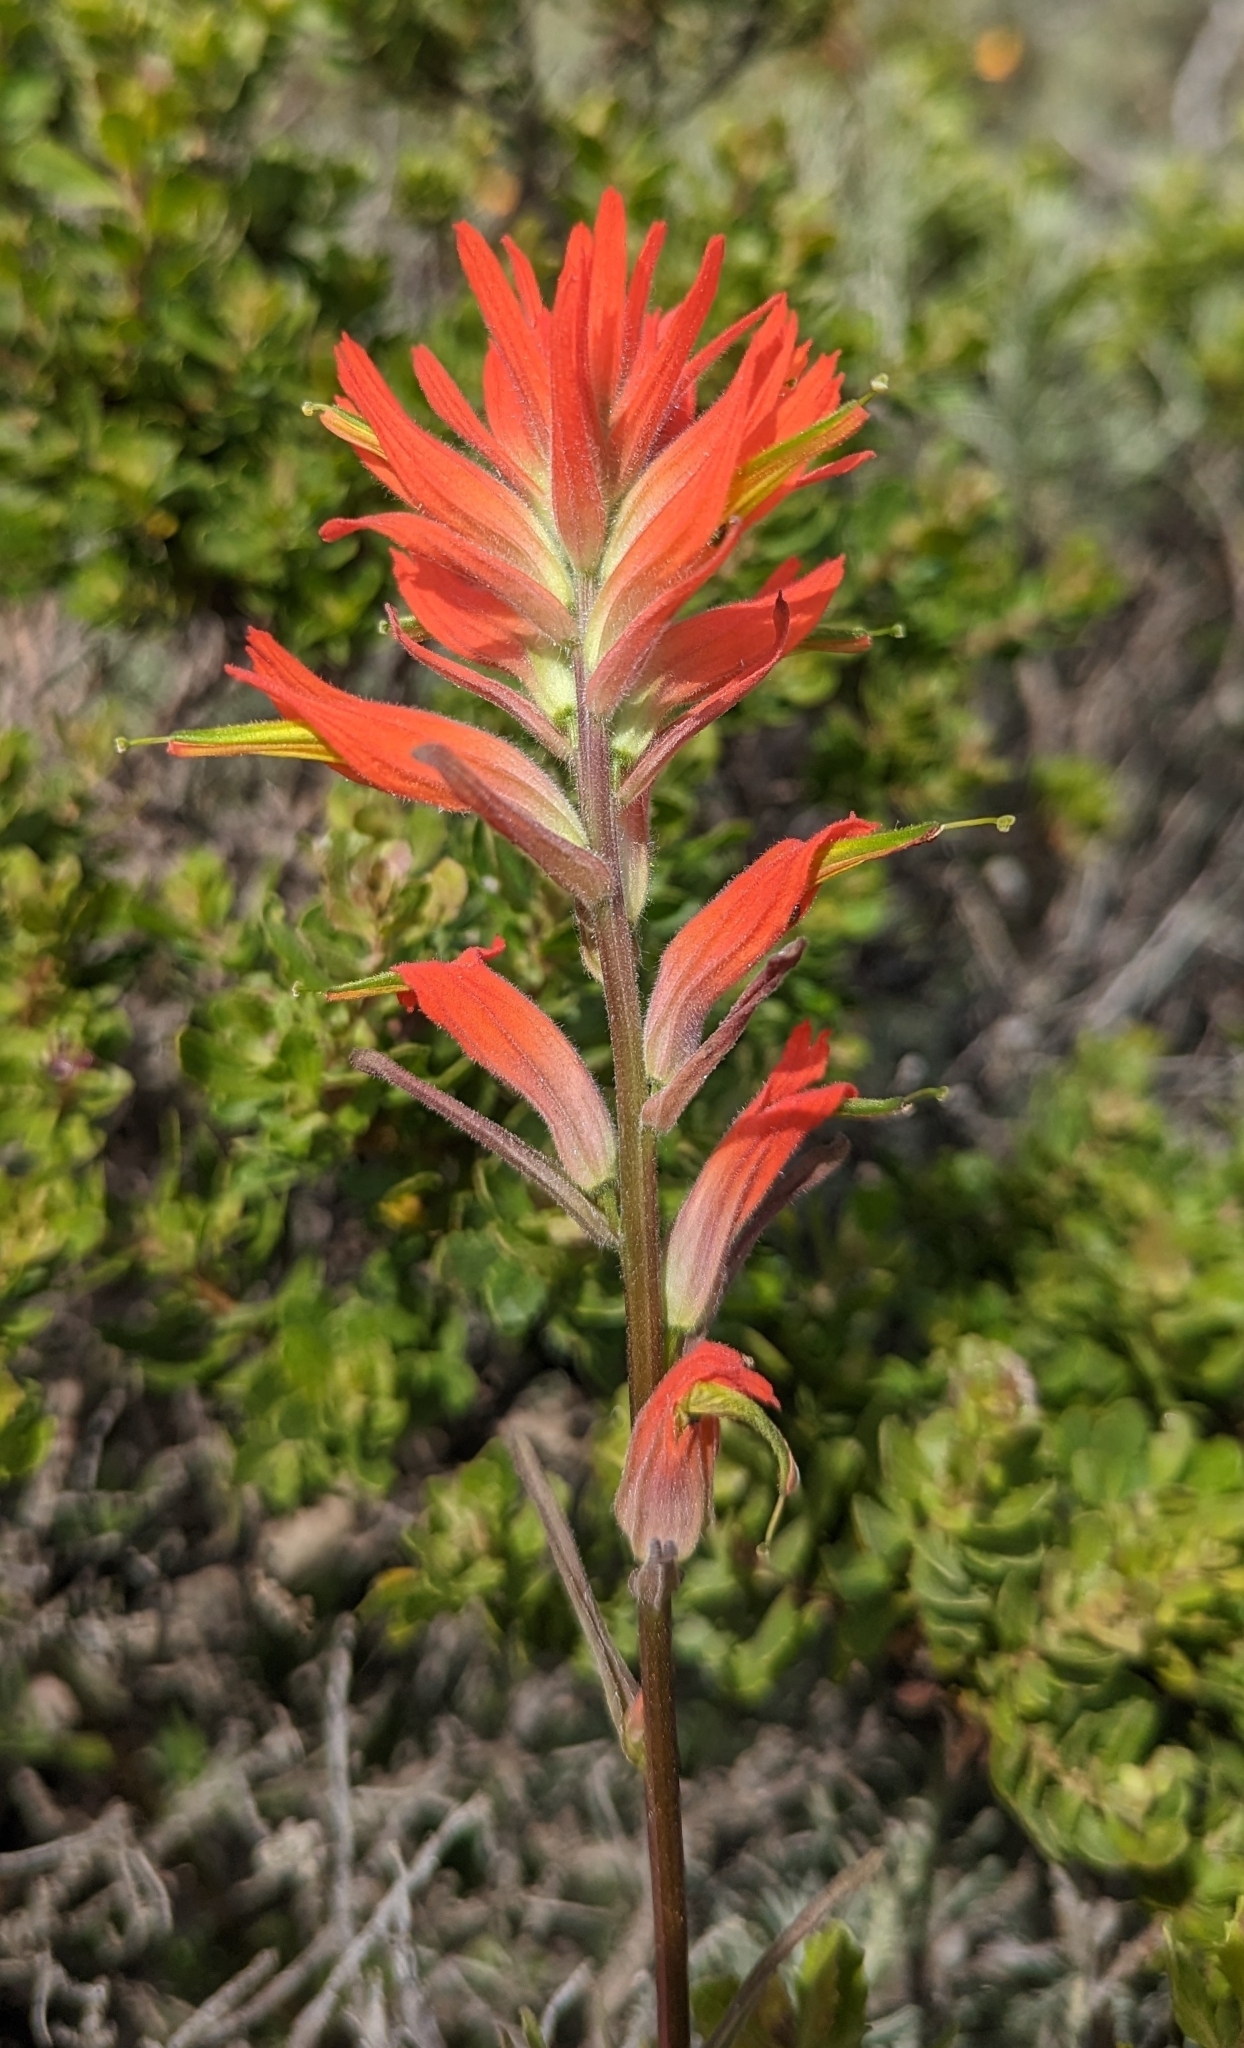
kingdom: Plantae
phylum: Tracheophyta
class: Magnoliopsida
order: Lamiales
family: Orobanchaceae
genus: Castilleja
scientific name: Castilleja subinclusa
